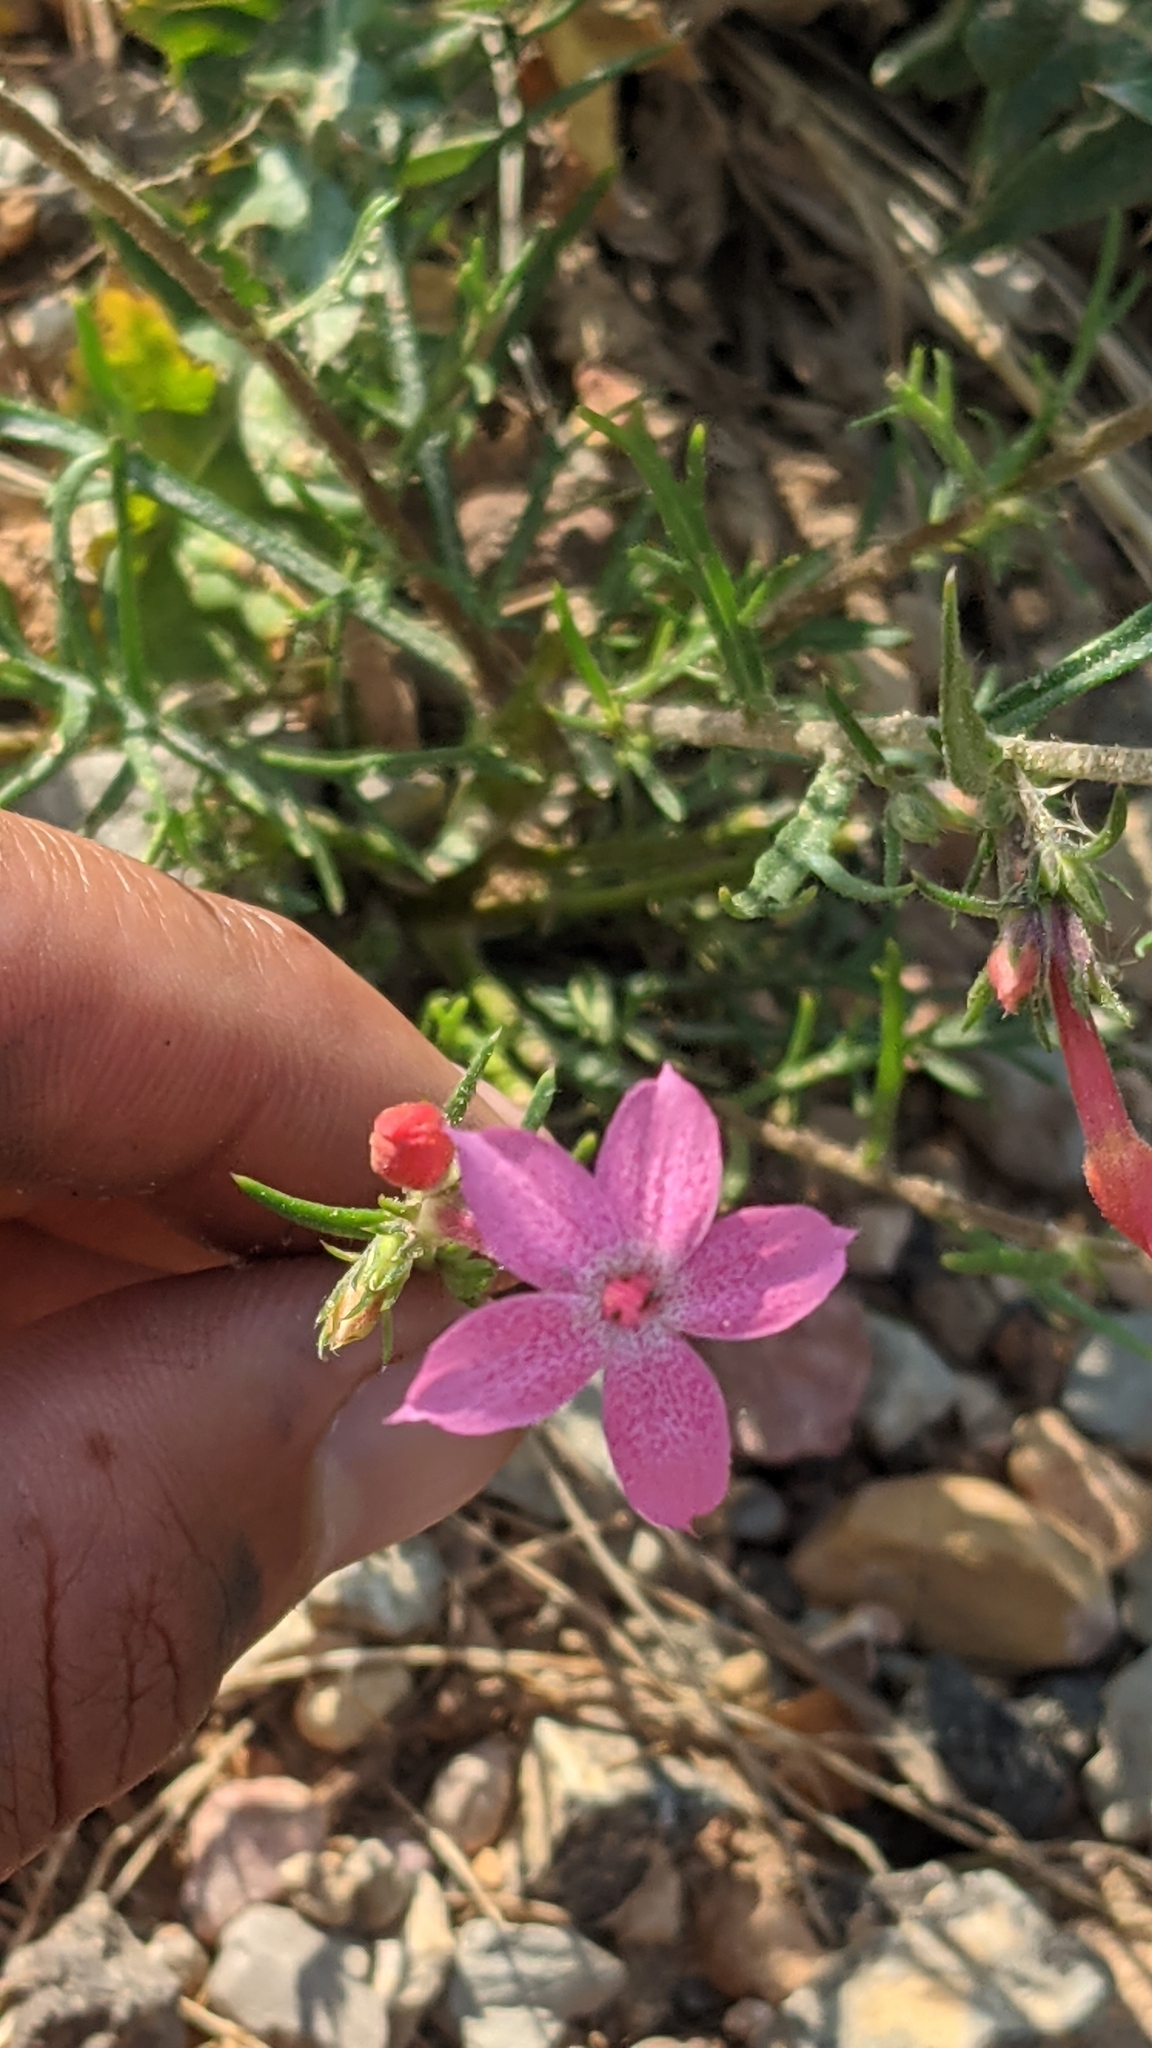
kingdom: Plantae
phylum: Tracheophyta
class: Magnoliopsida
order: Ericales
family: Polemoniaceae
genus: Ipomopsis
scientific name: Ipomopsis tenuituba
